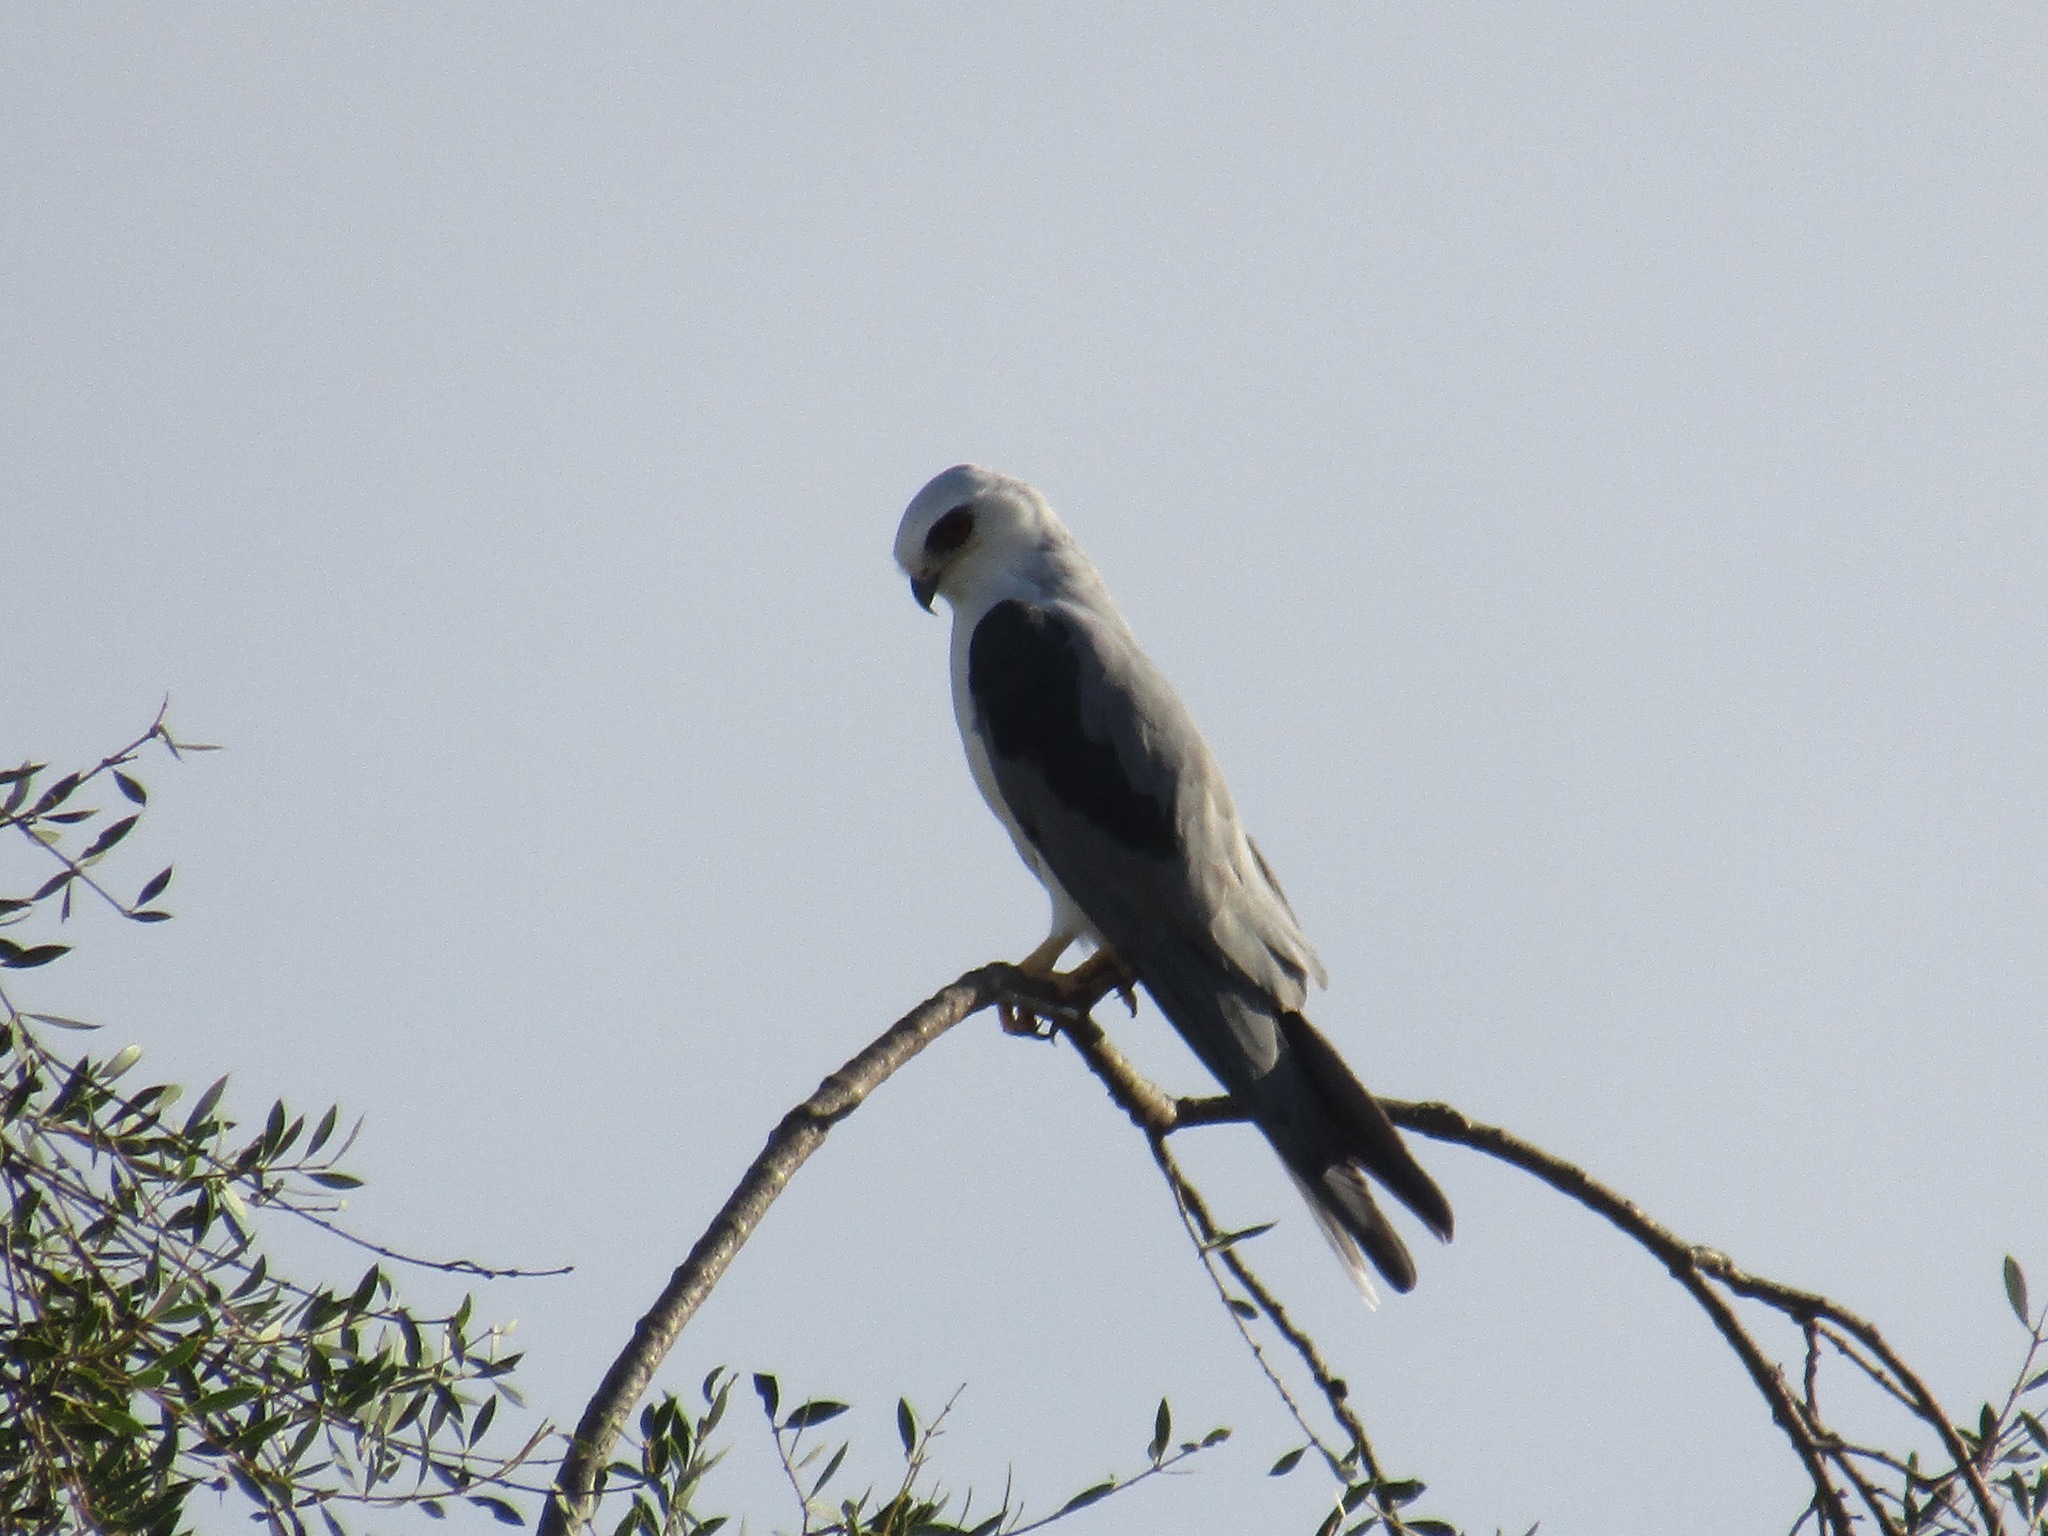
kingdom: Animalia
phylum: Chordata
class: Aves
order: Accipitriformes
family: Accipitridae
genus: Elanus
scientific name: Elanus leucurus
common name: White-tailed kite
